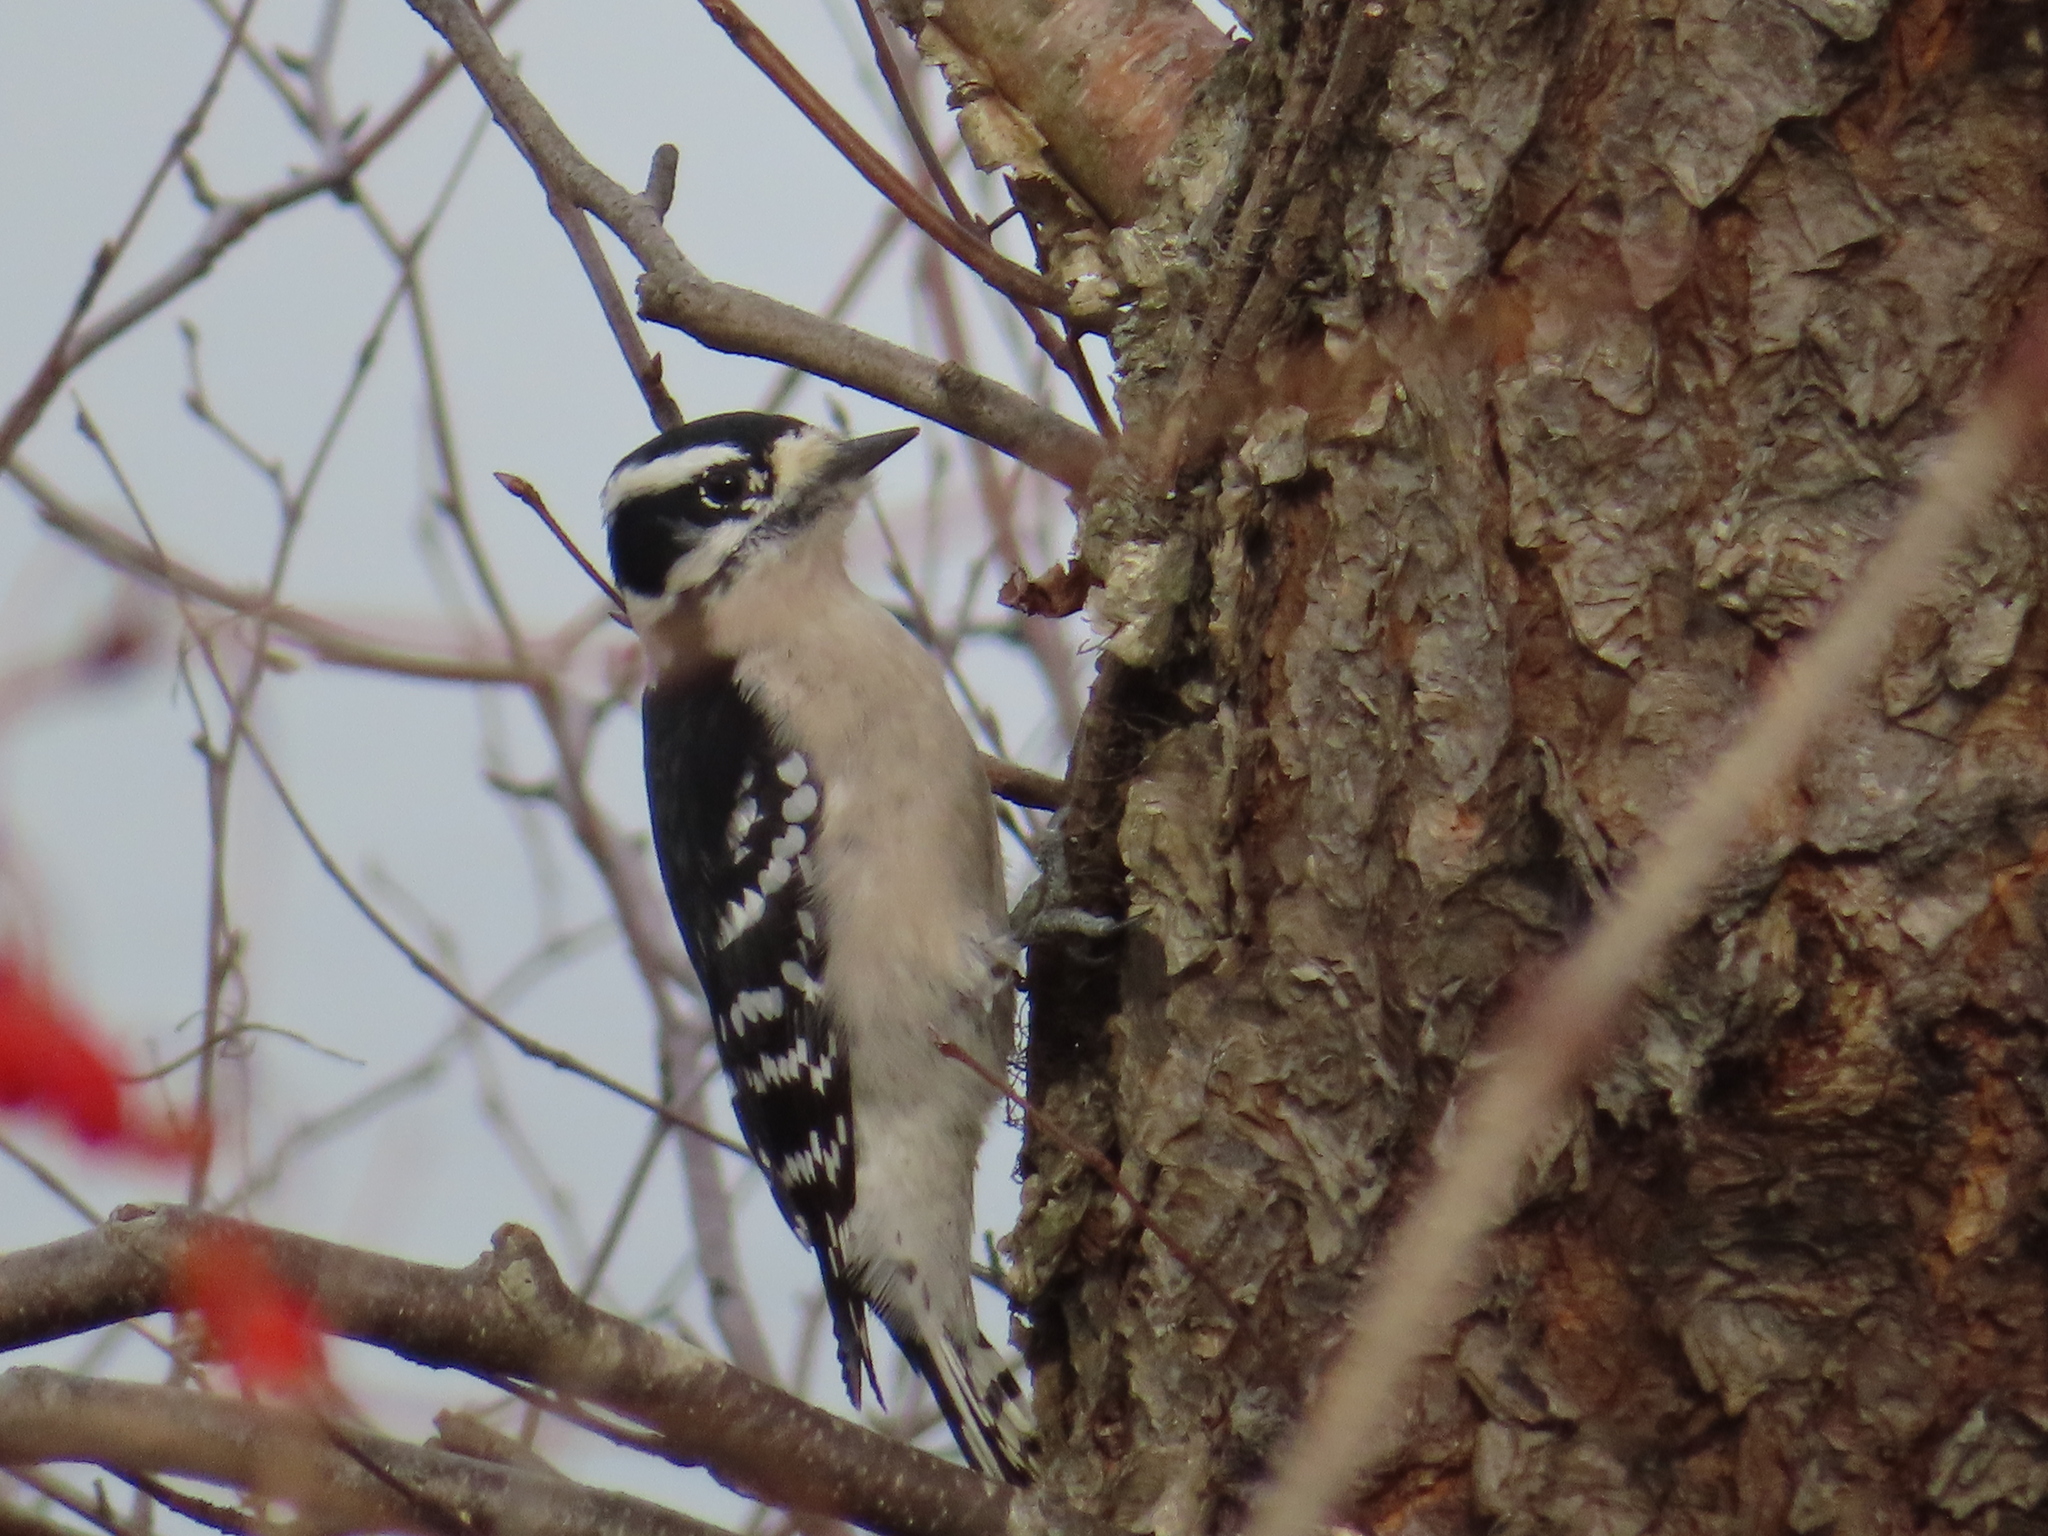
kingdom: Animalia
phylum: Chordata
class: Aves
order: Piciformes
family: Picidae
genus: Dryobates
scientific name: Dryobates pubescens
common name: Downy woodpecker
